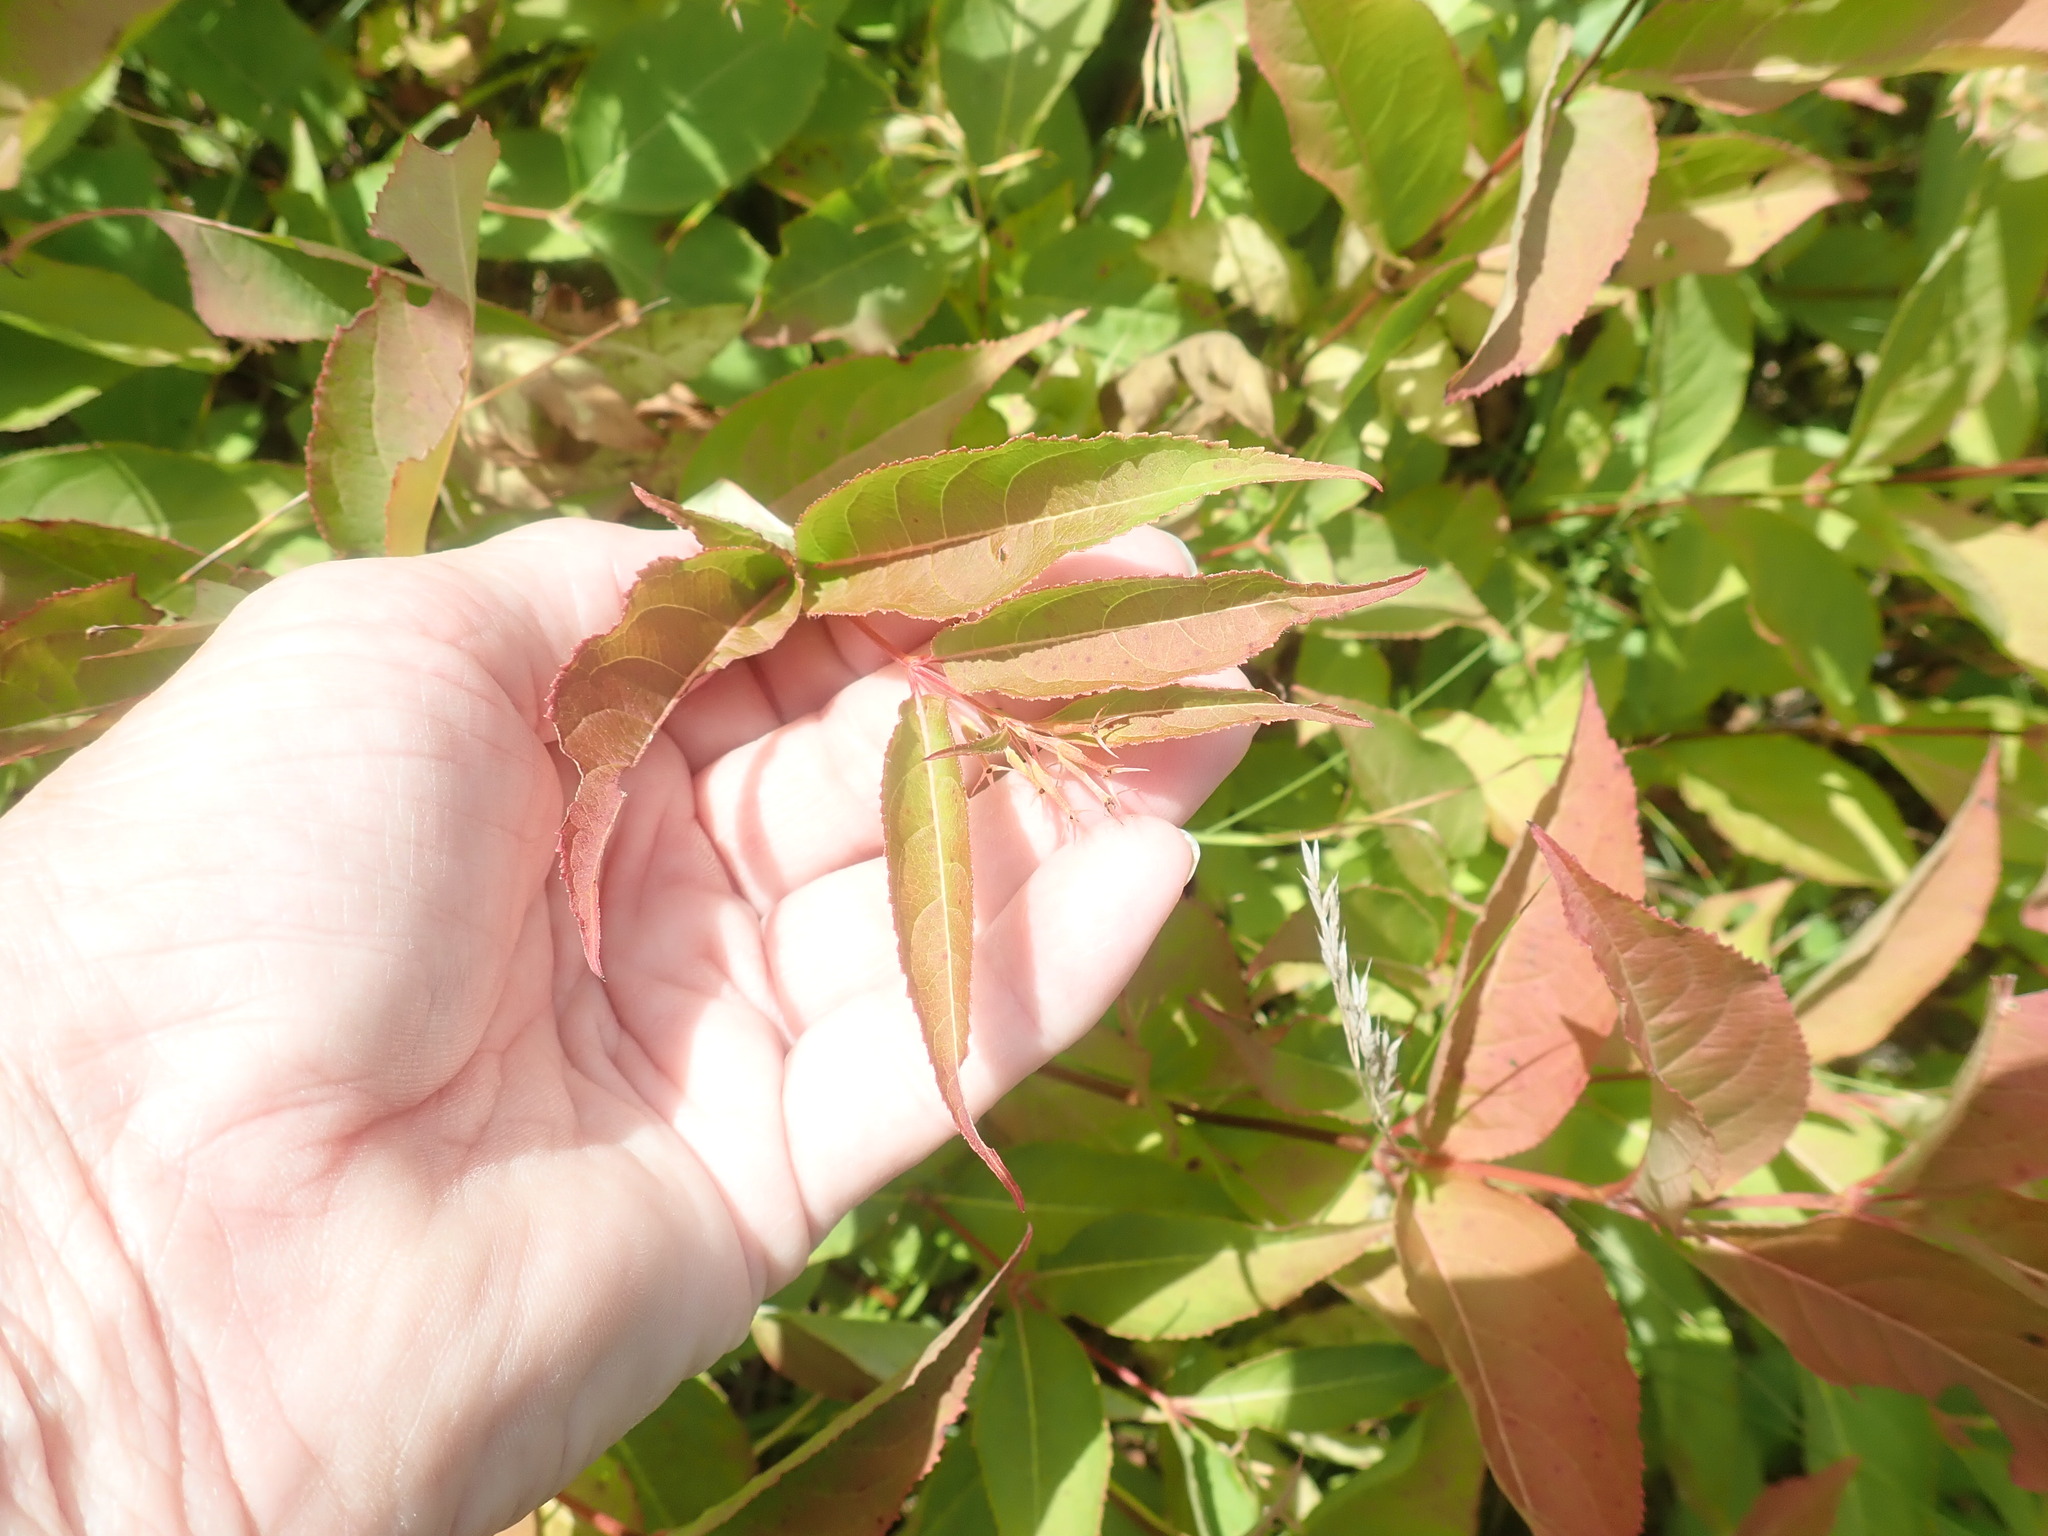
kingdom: Plantae
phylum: Tracheophyta
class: Magnoliopsida
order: Dipsacales
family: Caprifoliaceae
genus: Diervilla
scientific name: Diervilla lonicera
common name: Bush-honeysuckle
